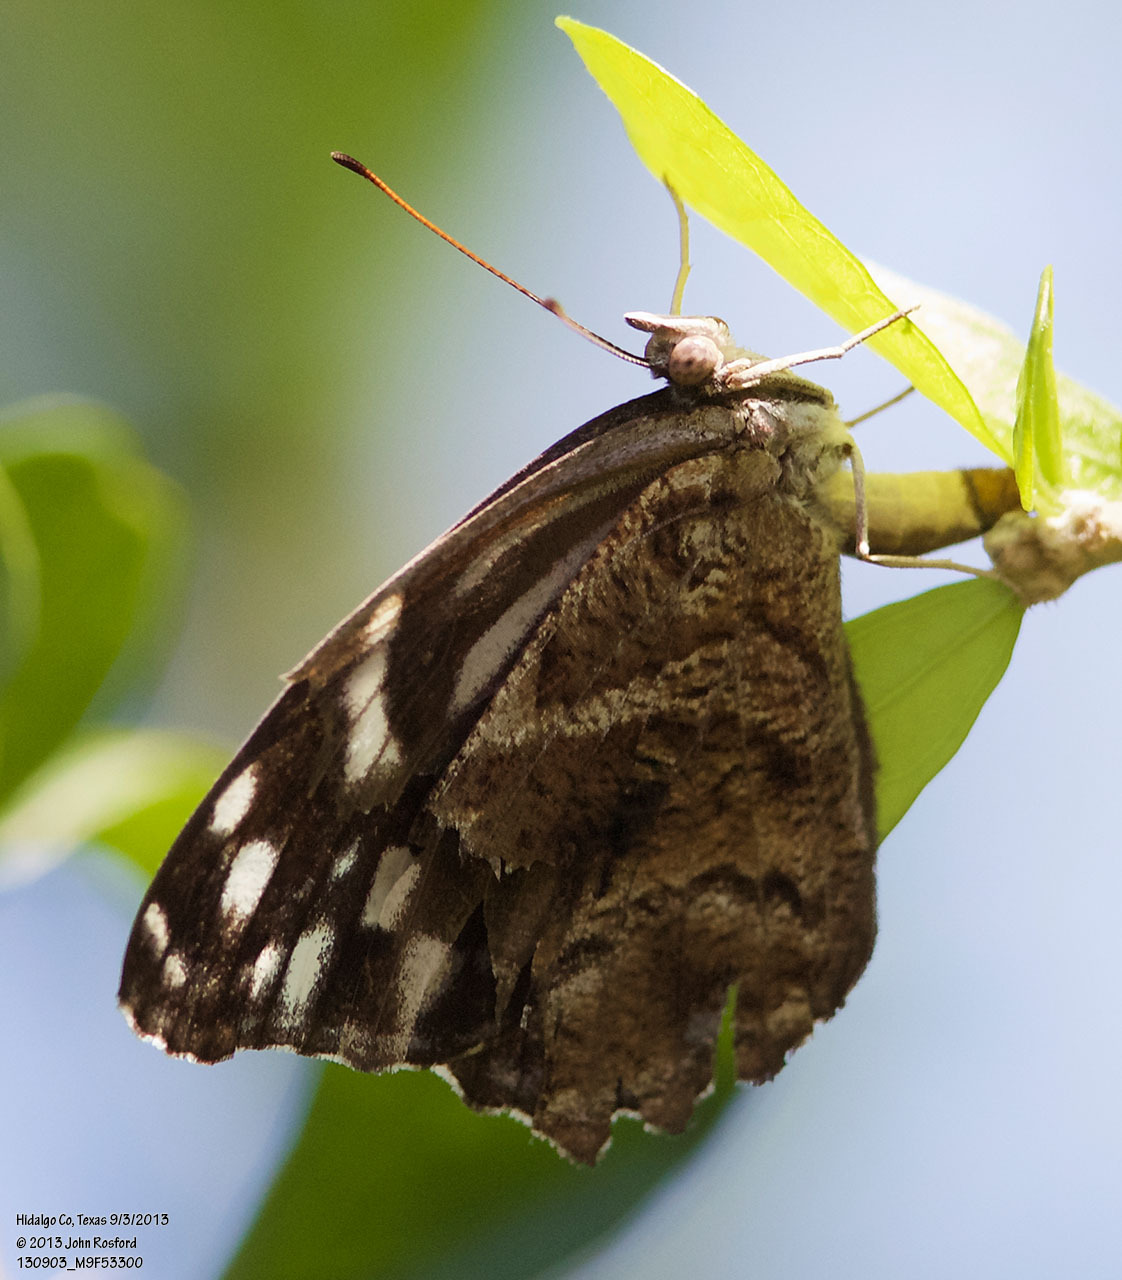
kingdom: Animalia
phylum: Arthropoda
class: Insecta
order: Lepidoptera
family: Nymphalidae
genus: Myscelia
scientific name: Myscelia ethusa
